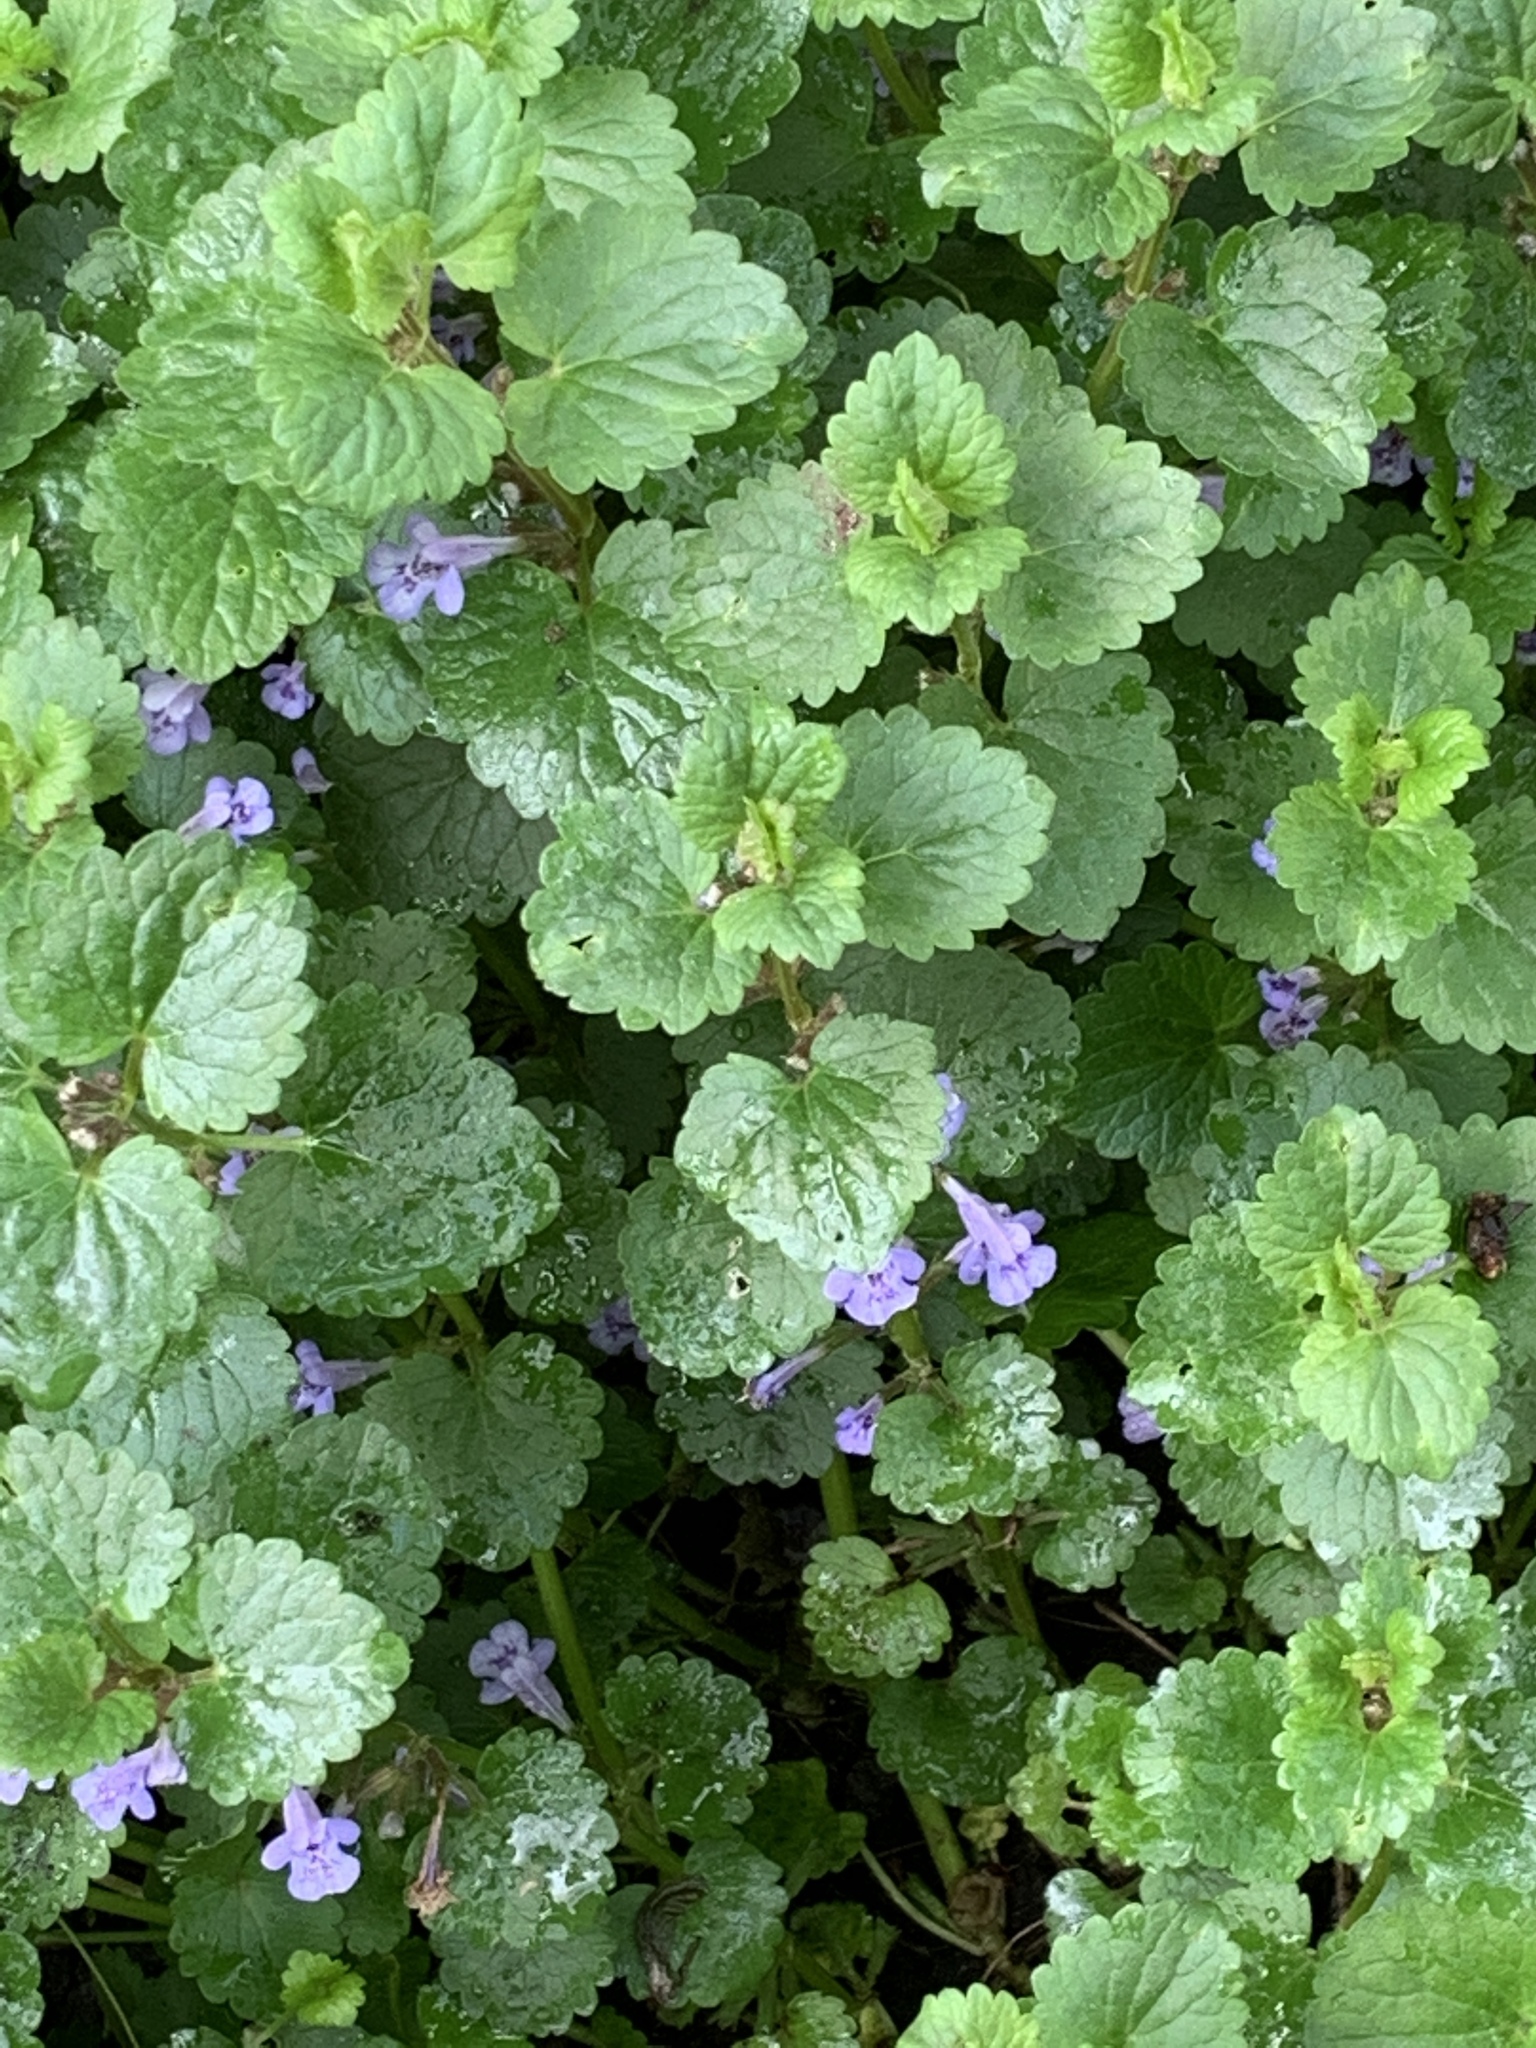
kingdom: Plantae
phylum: Tracheophyta
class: Magnoliopsida
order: Lamiales
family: Lamiaceae
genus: Glechoma
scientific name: Glechoma hederacea
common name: Ground ivy
